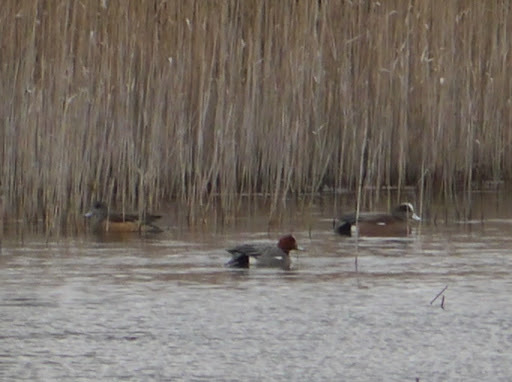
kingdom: Animalia
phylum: Chordata
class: Aves
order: Anseriformes
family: Anatidae
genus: Mareca
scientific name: Mareca penelope
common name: Eurasian wigeon
